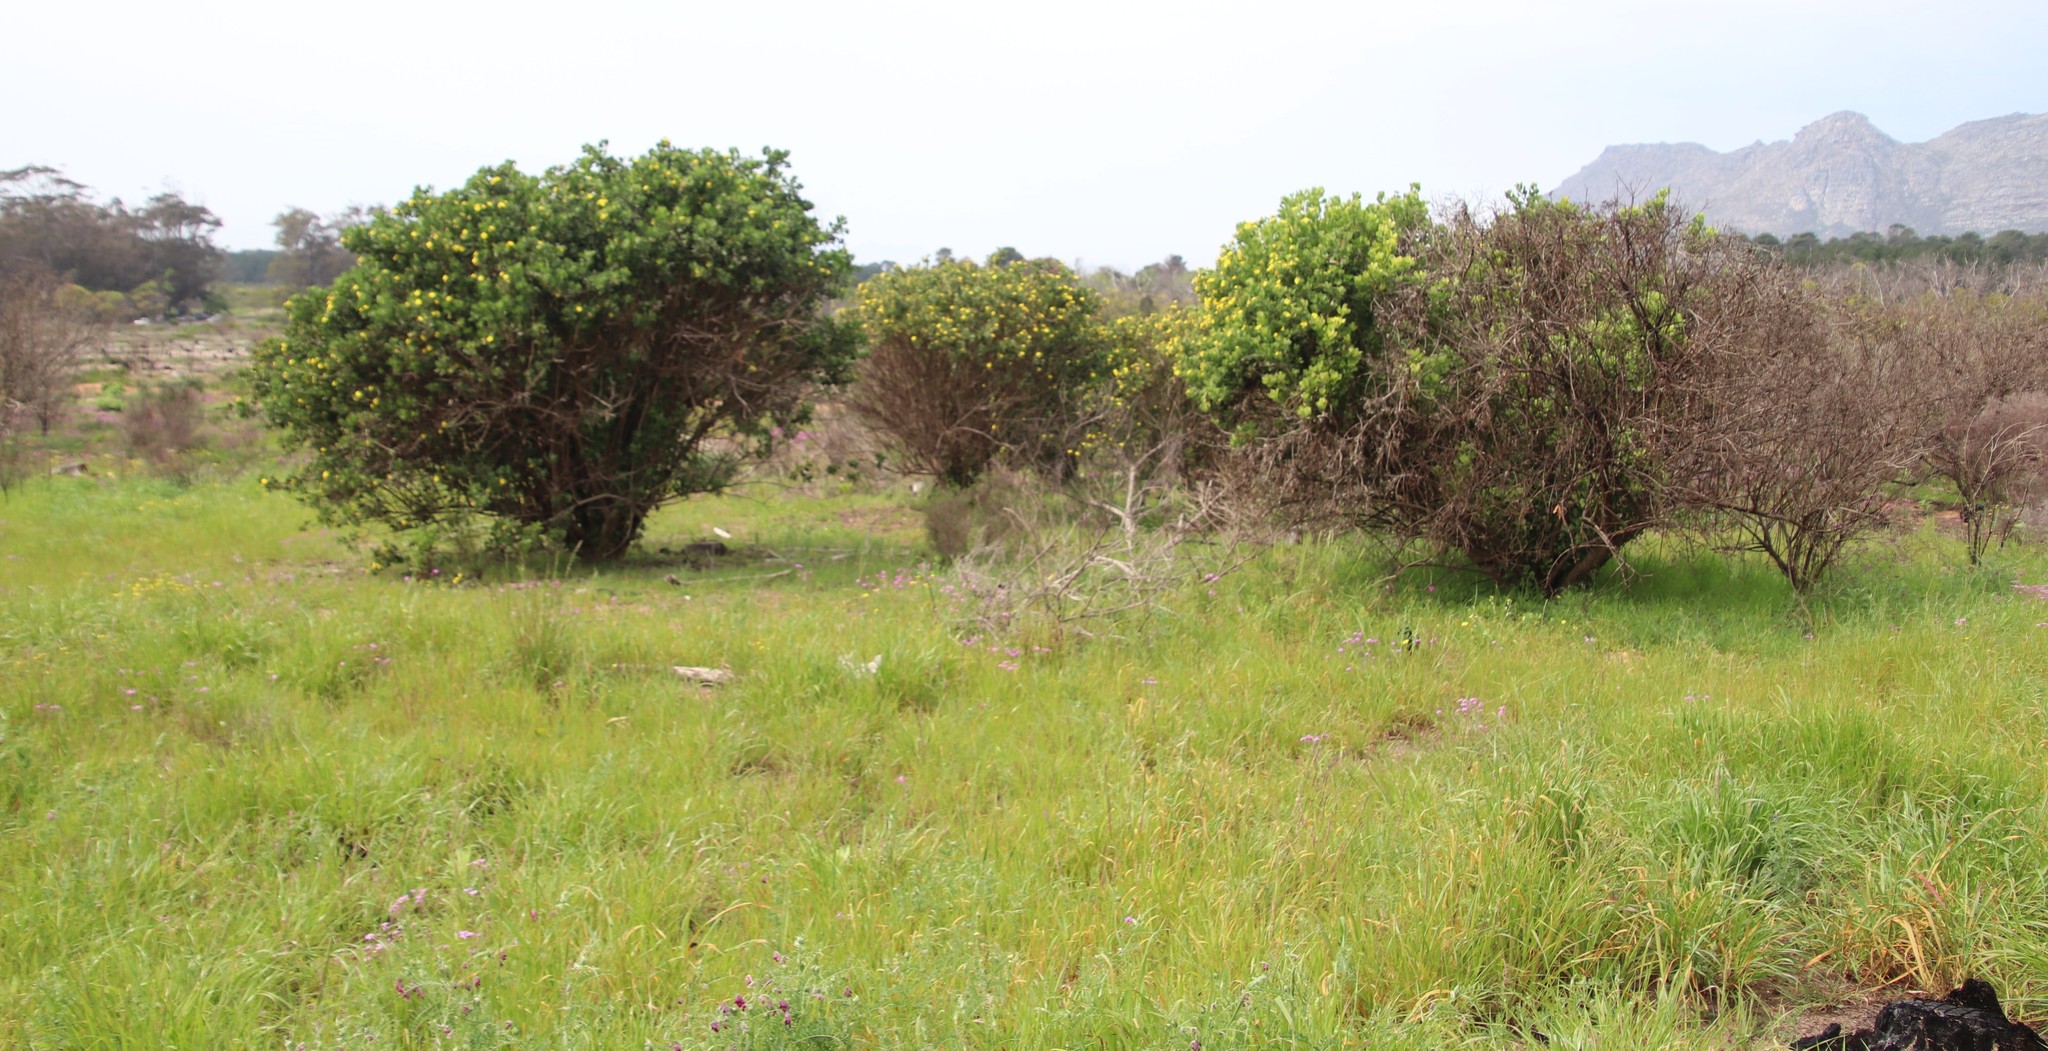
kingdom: Plantae
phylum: Tracheophyta
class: Magnoliopsida
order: Asterales
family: Asteraceae
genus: Osteospermum
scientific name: Osteospermum moniliferum
